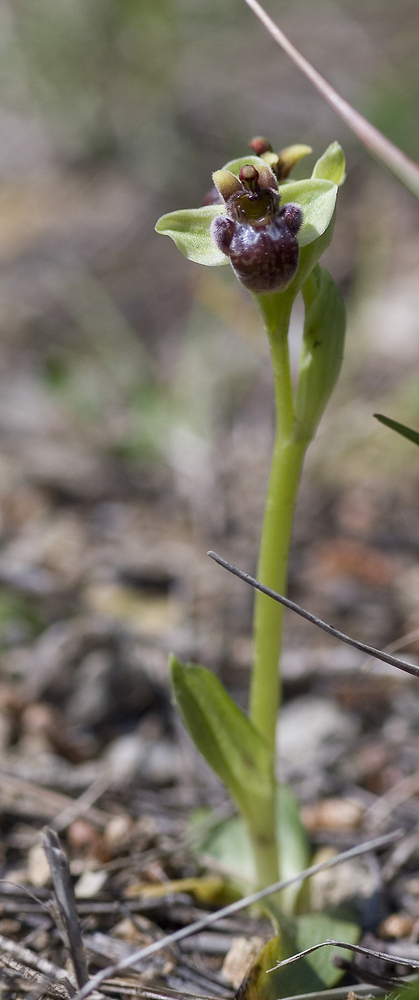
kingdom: Plantae
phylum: Tracheophyta
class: Liliopsida
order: Asparagales
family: Orchidaceae
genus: Ophrys
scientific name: Ophrys bombyliflora
